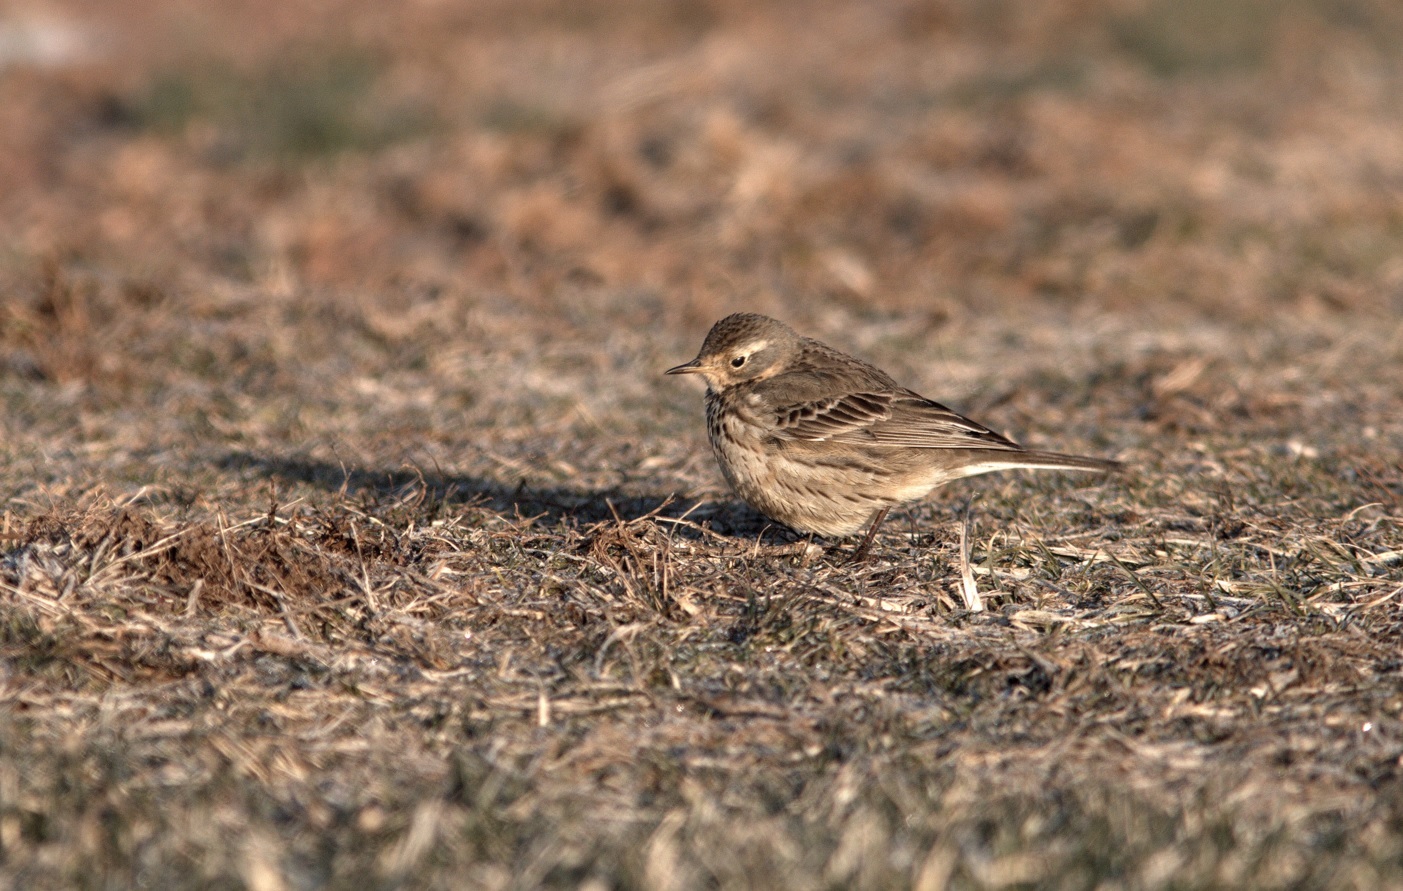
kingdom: Animalia
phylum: Chordata
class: Aves
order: Passeriformes
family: Motacillidae
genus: Anthus
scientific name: Anthus rubescens
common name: Buff-bellied pipit
